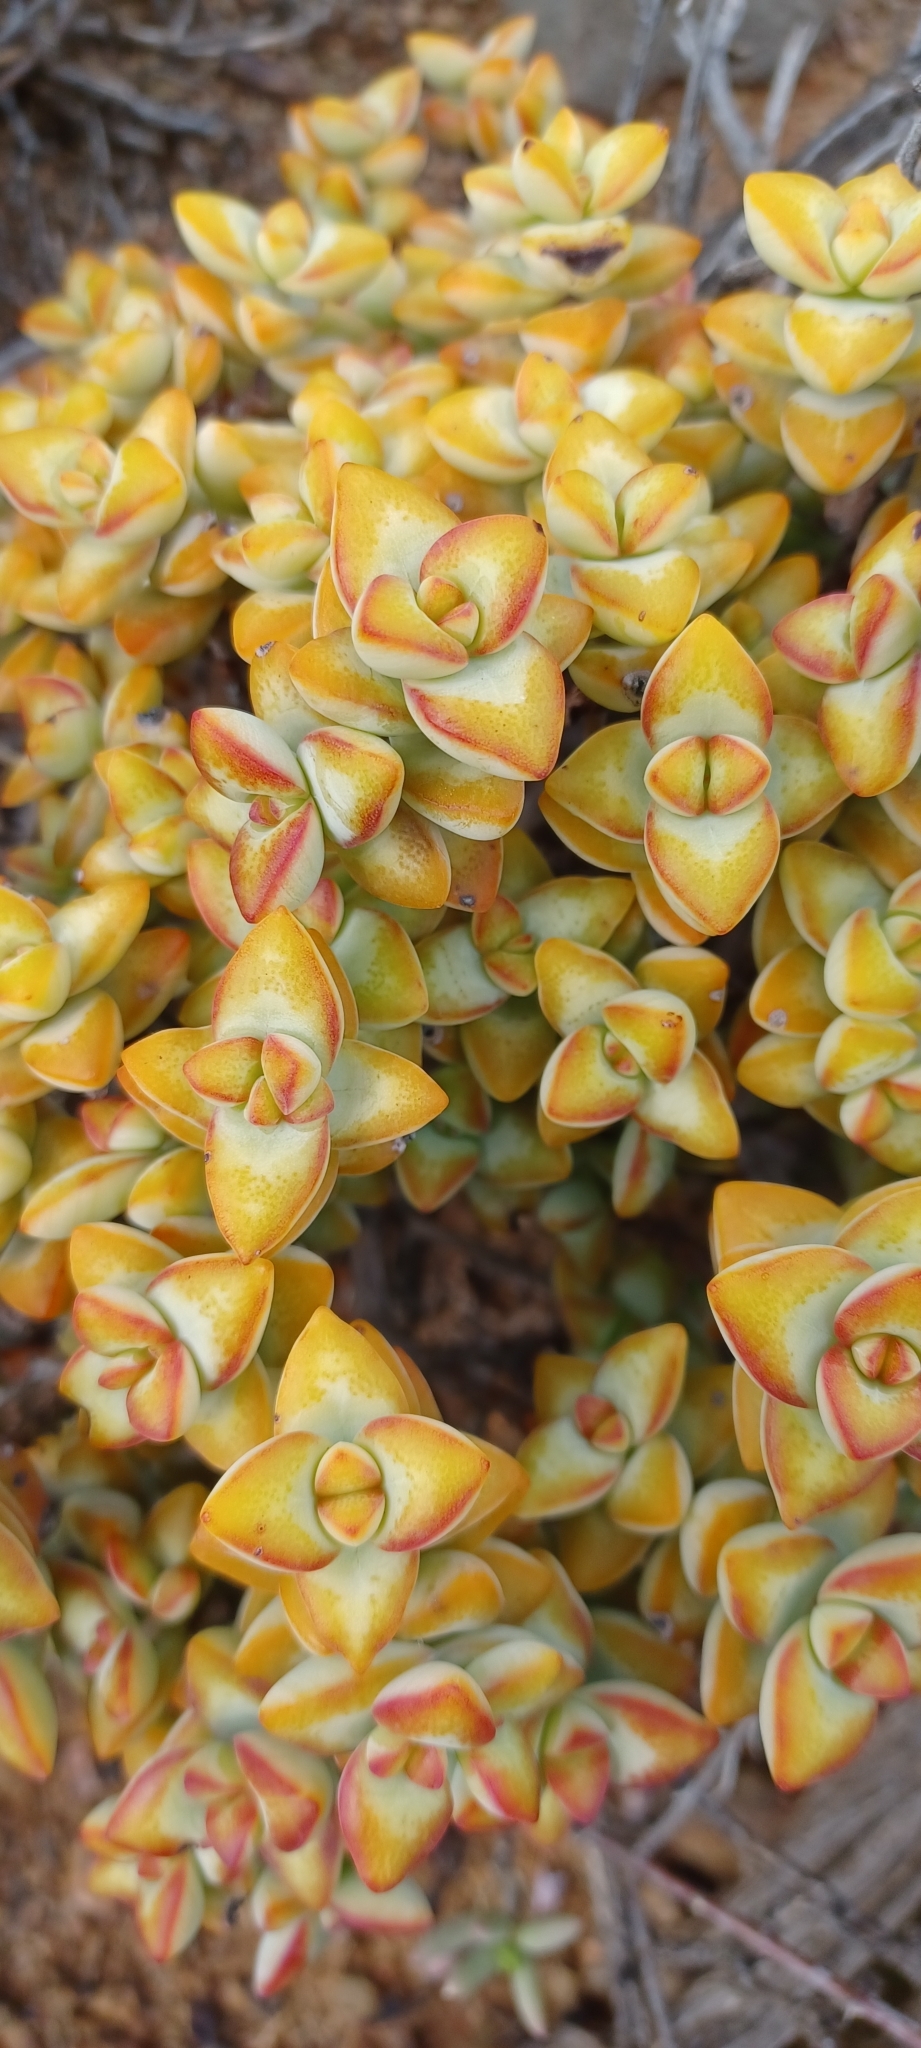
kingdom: Plantae
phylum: Tracheophyta
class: Magnoliopsida
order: Saxifragales
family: Crassulaceae
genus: Crassula
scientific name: Crassula rupestris
